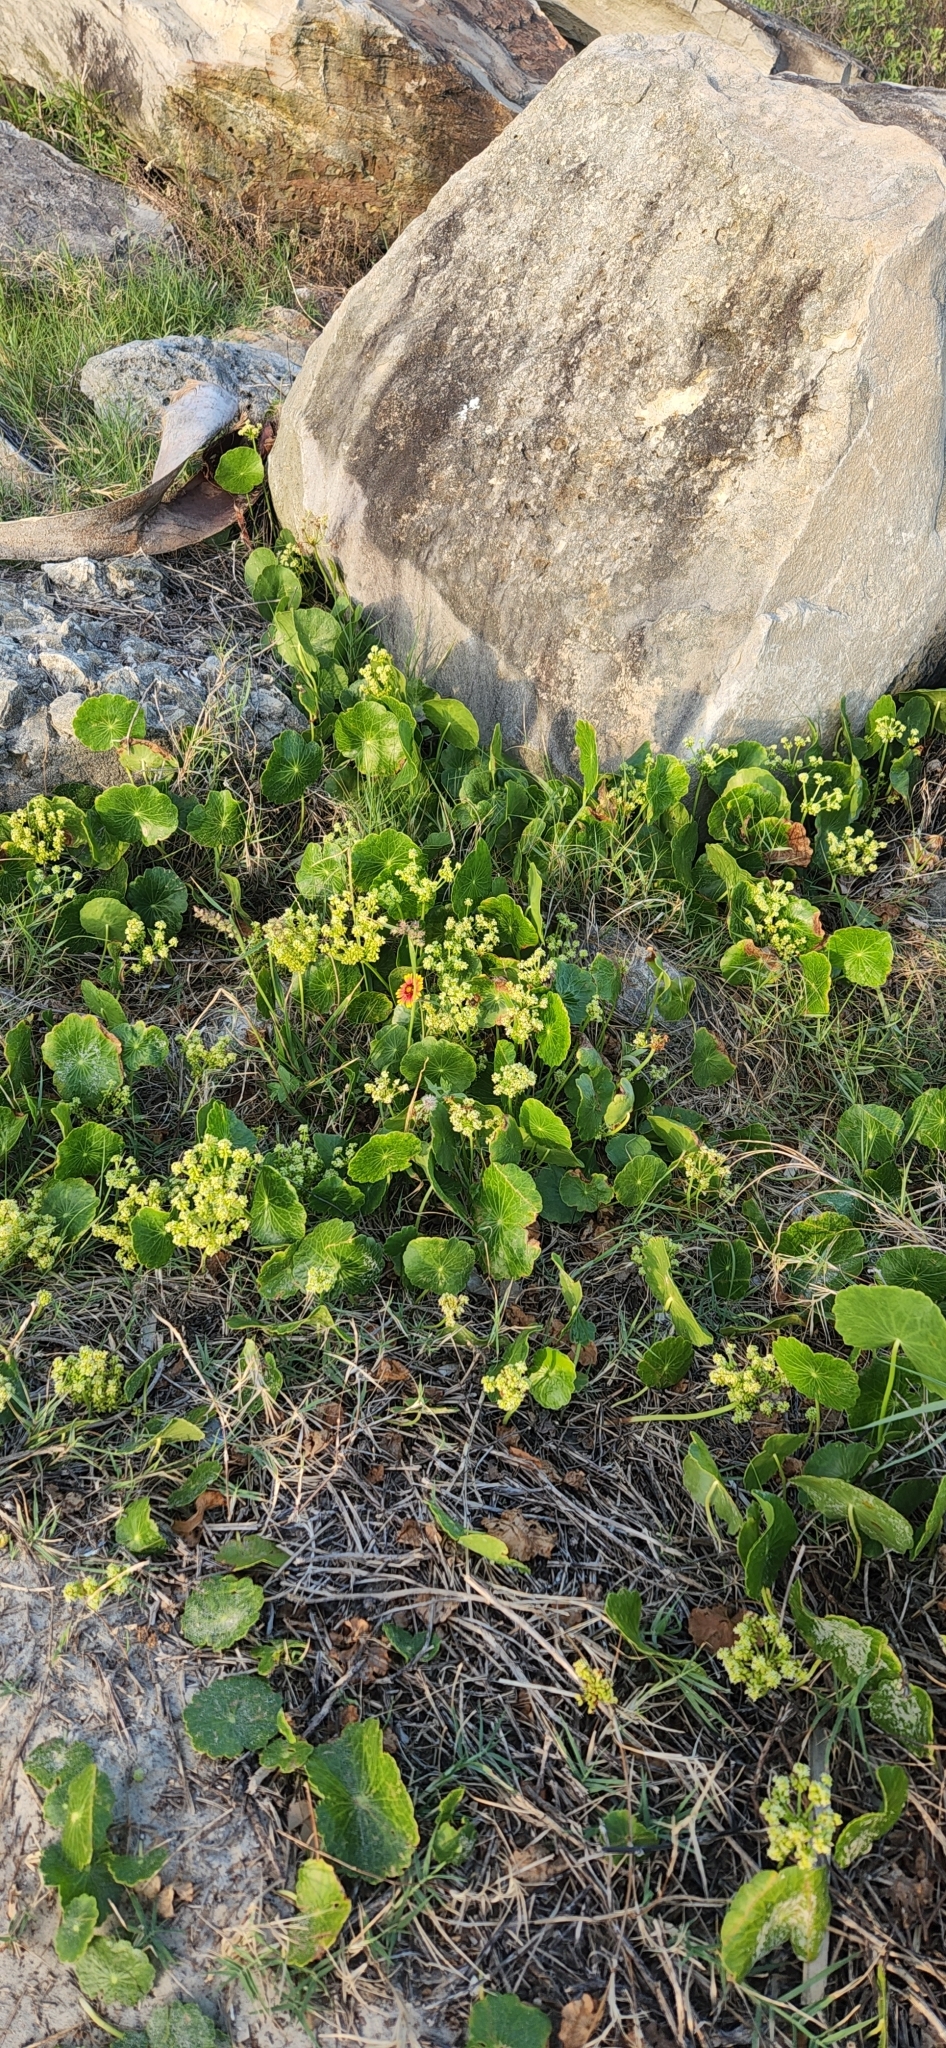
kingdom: Plantae
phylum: Tracheophyta
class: Magnoliopsida
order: Apiales
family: Araliaceae
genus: Hydrocotyle
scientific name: Hydrocotyle bonariensis
